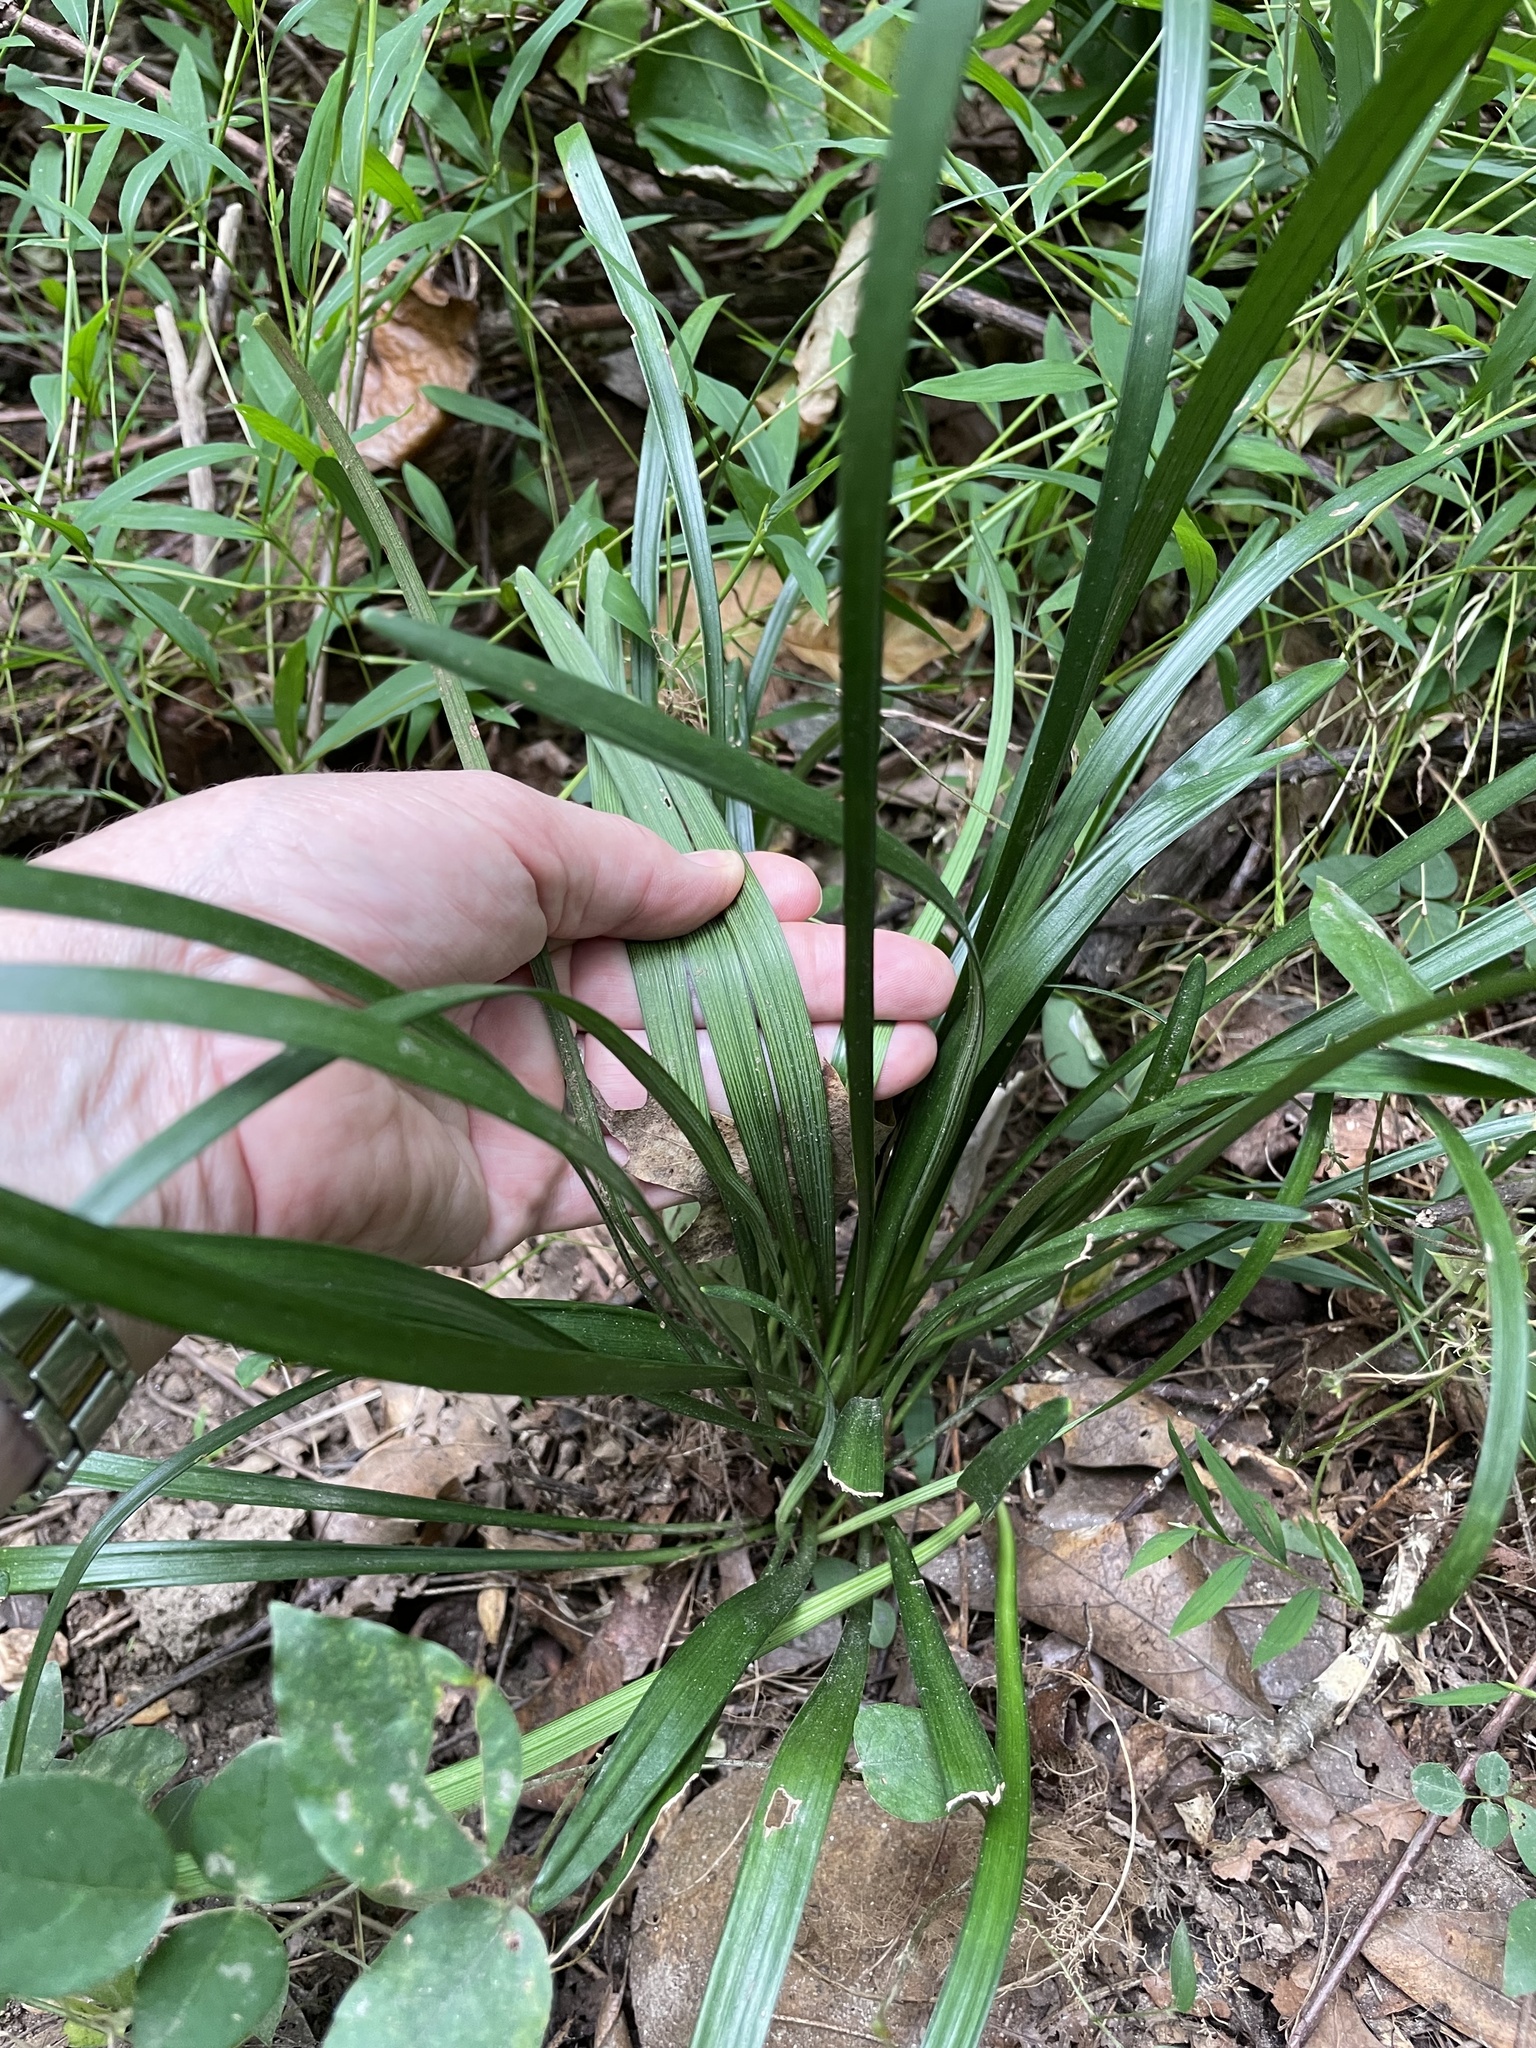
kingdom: Plantae
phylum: Tracheophyta
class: Liliopsida
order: Asparagales
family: Asparagaceae
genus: Liriope
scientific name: Liriope muscari
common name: Big blue lilyturf
